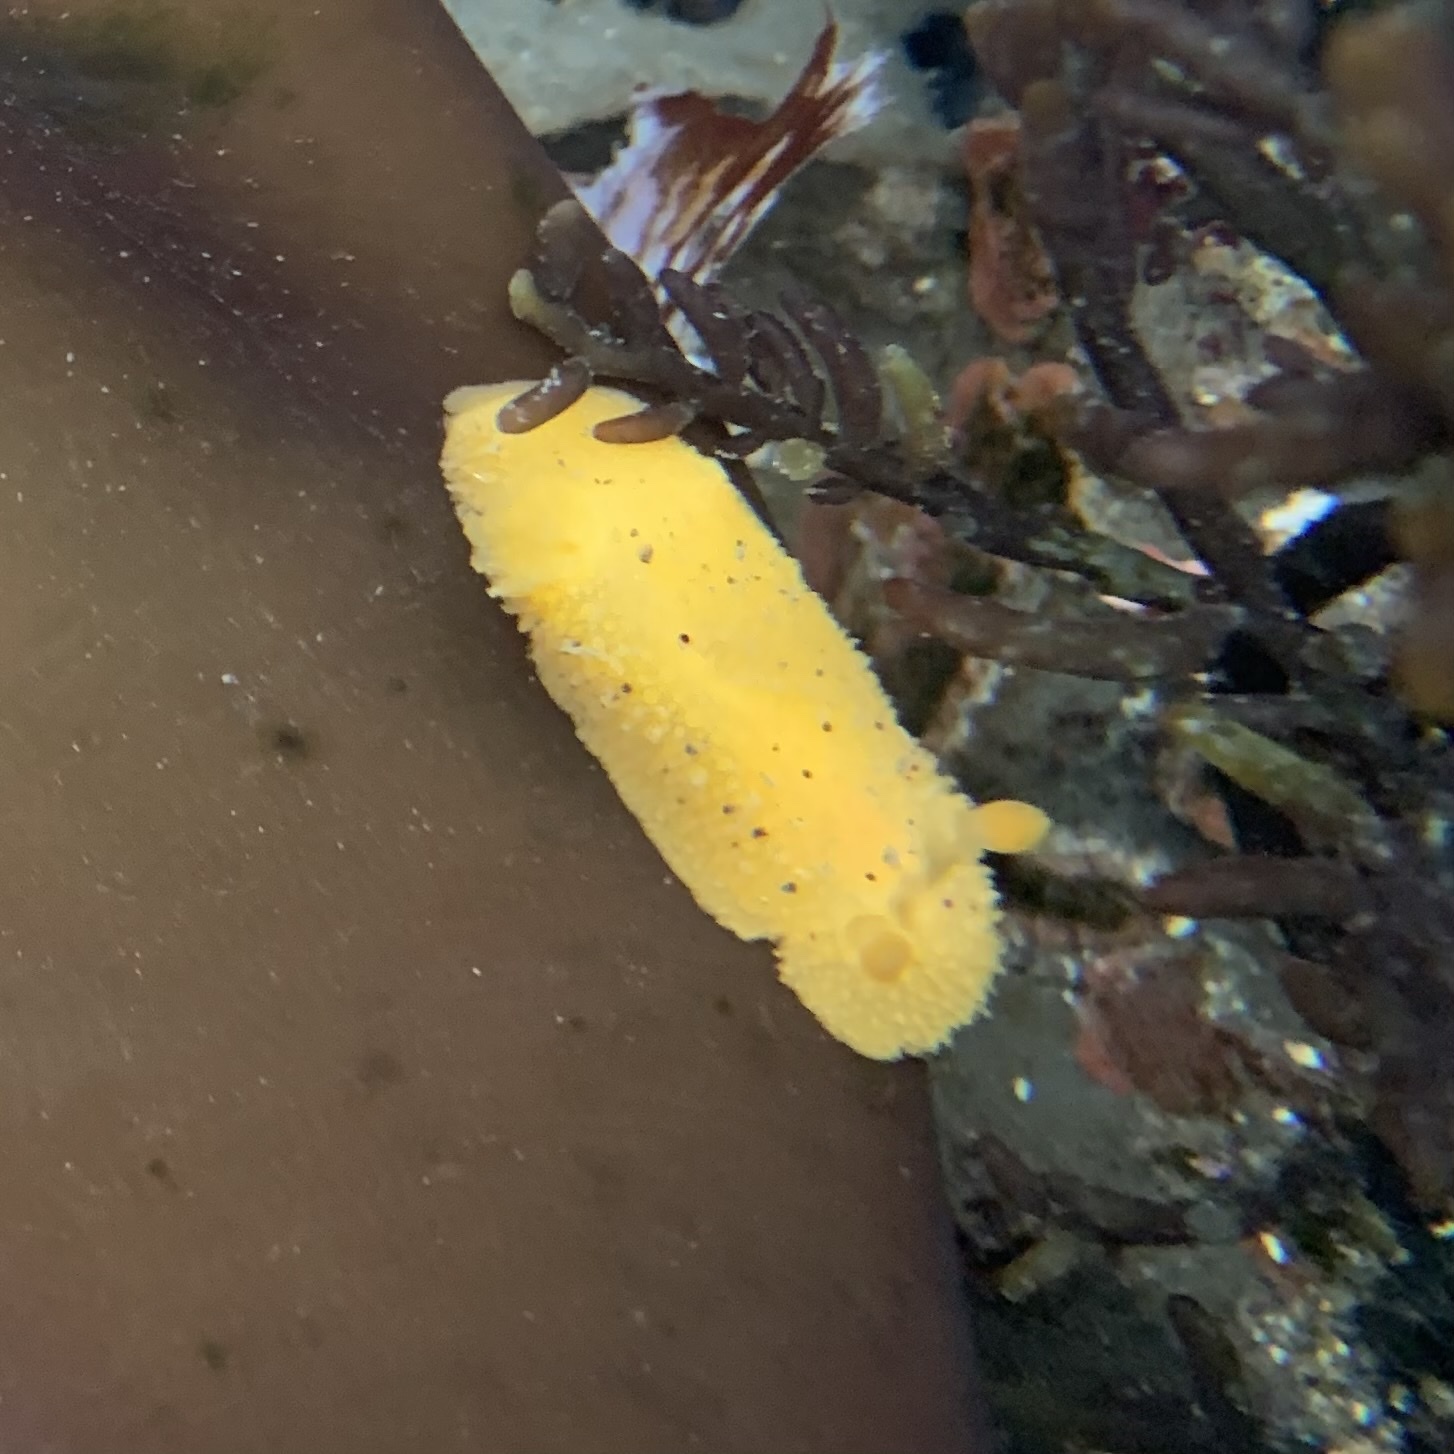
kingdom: Animalia
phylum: Mollusca
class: Gastropoda
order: Nudibranchia
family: Dorididae
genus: Doris
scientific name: Doris montereyensis
